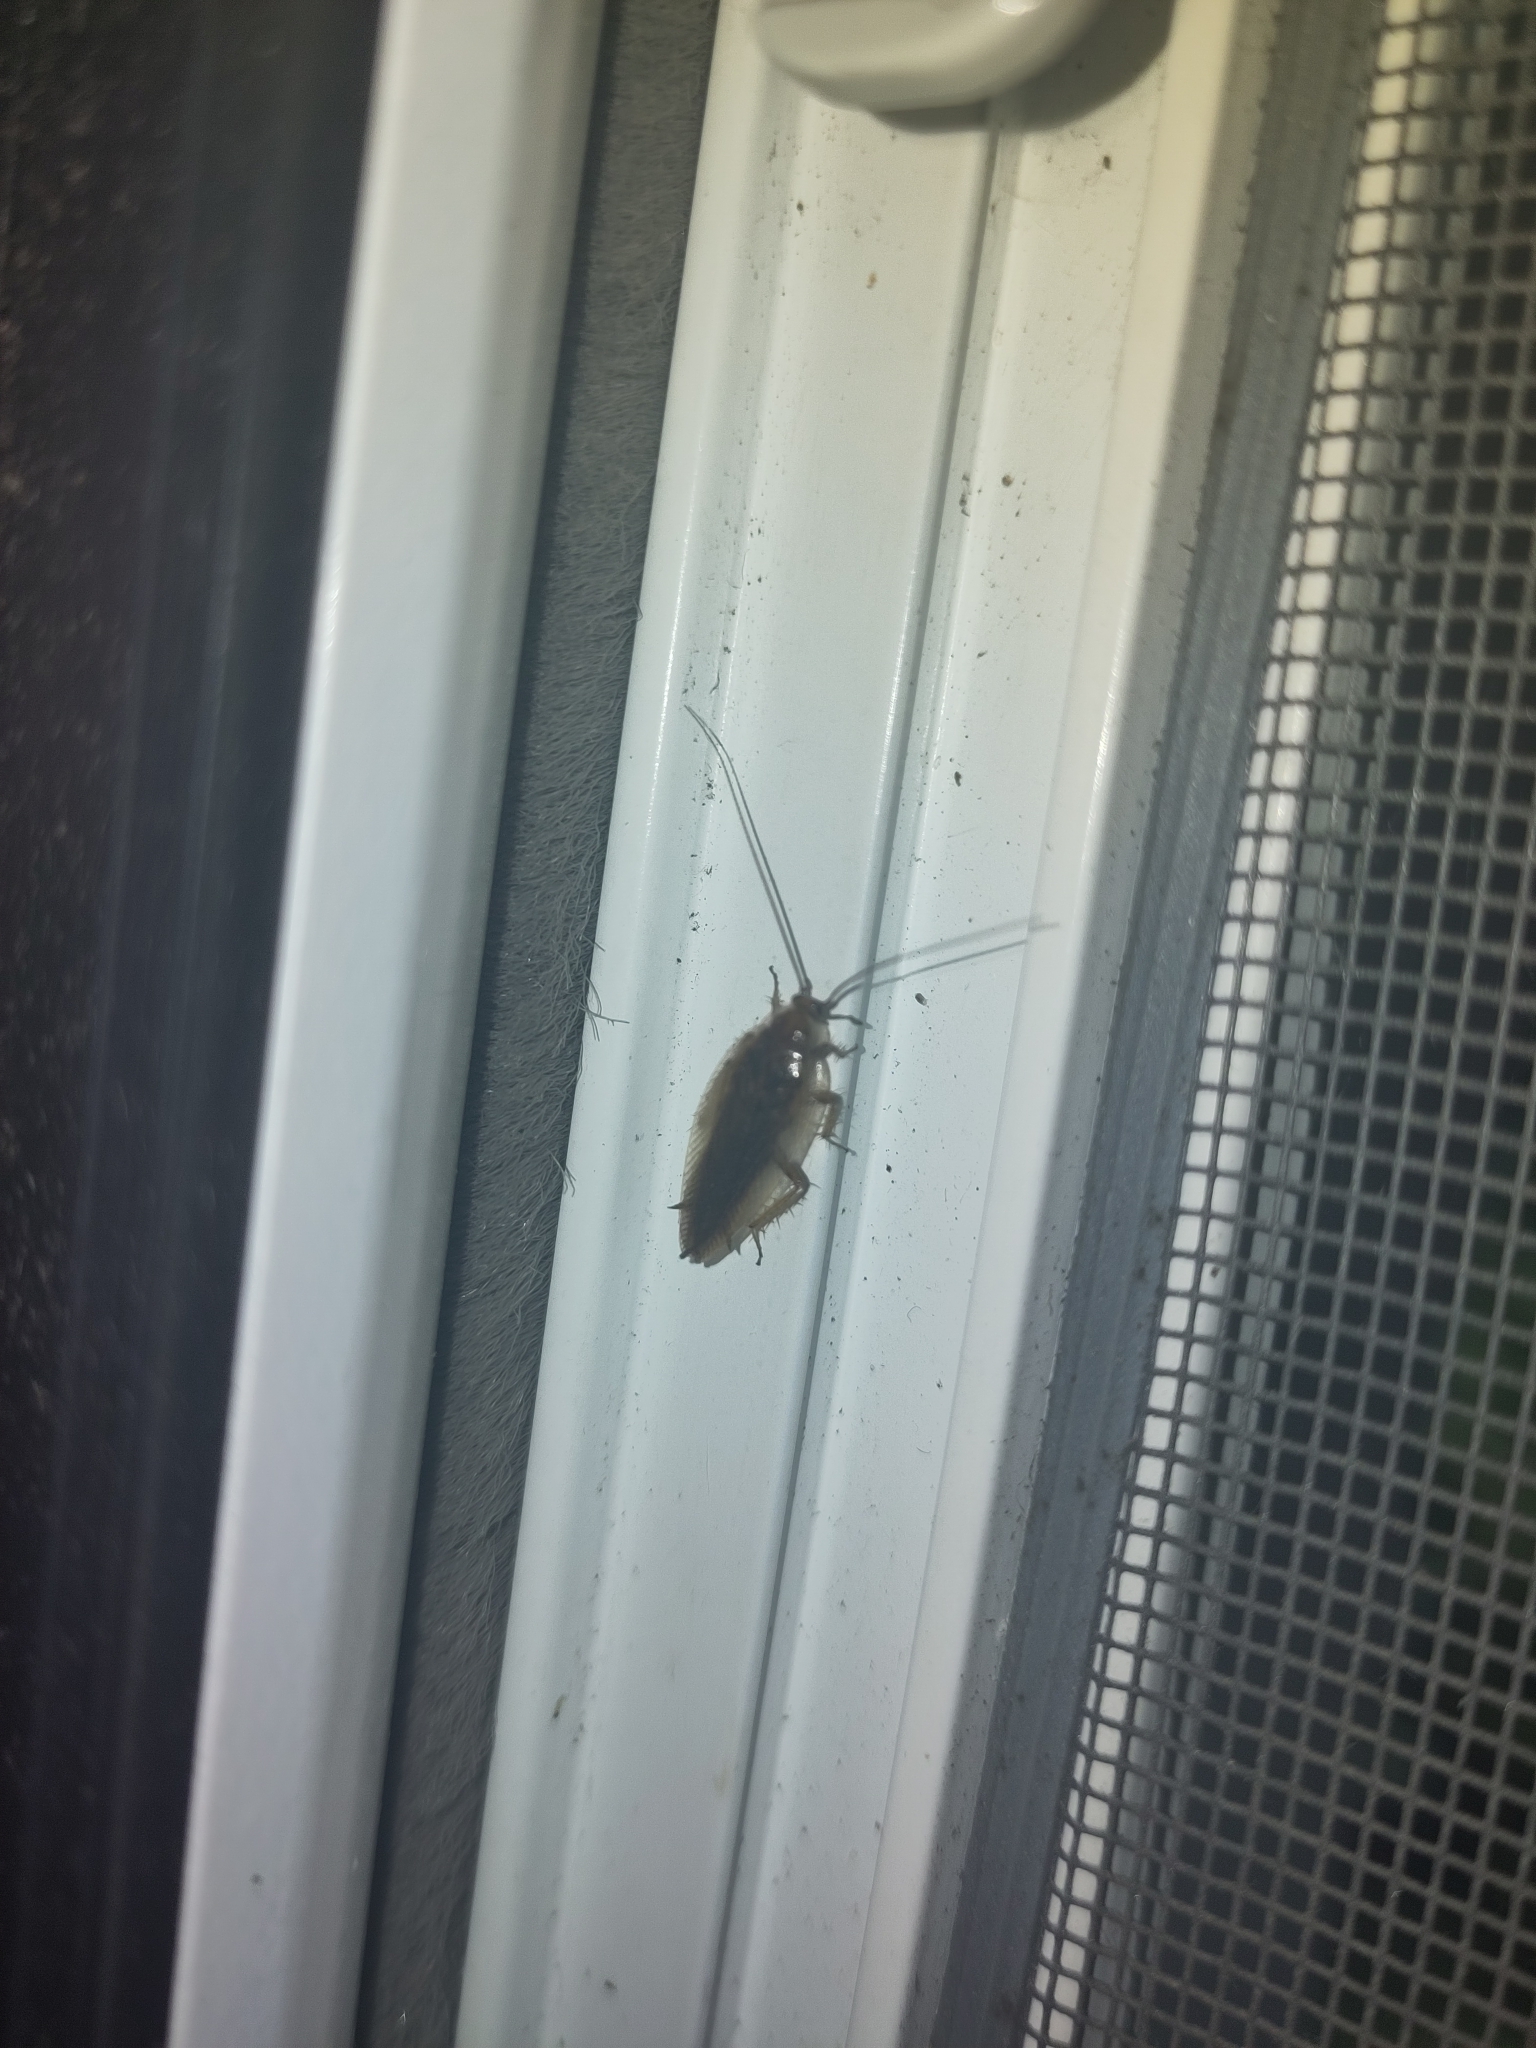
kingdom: Animalia
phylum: Arthropoda
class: Insecta
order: Blattodea
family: Ectobiidae
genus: Ectobius
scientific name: Ectobius vittiventris
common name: Garden cockroach
